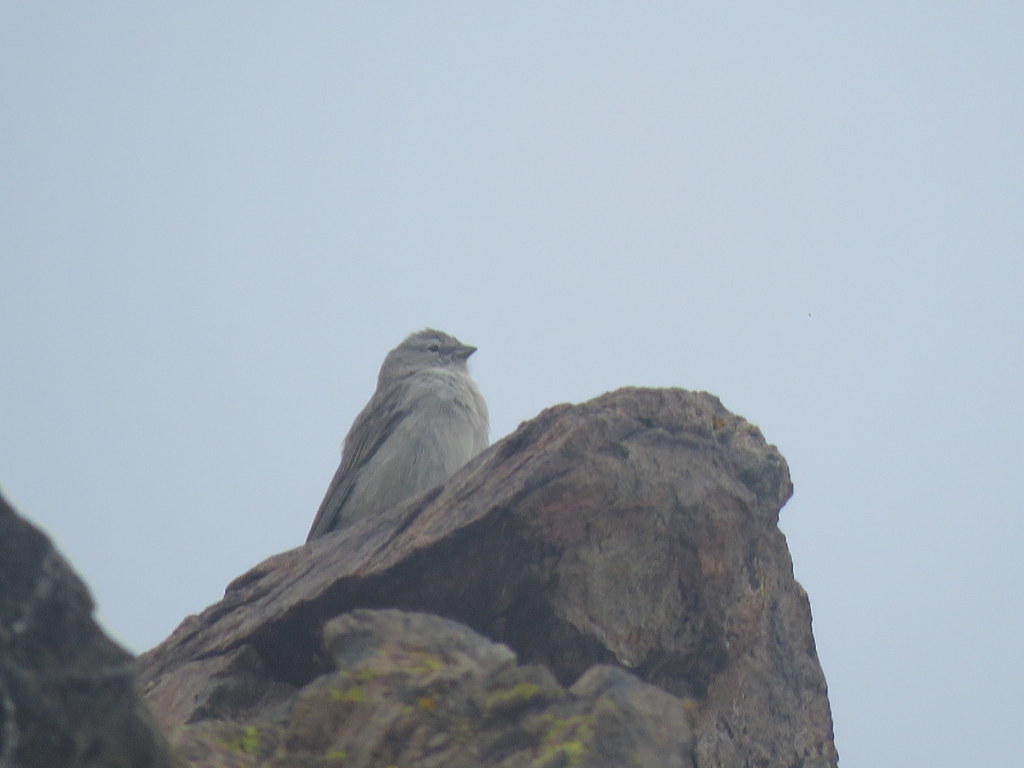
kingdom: Animalia
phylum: Chordata
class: Aves
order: Passeriformes
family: Thraupidae
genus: Geospizopsis
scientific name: Geospizopsis plebejus
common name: Ash-breasted sierra-finch
